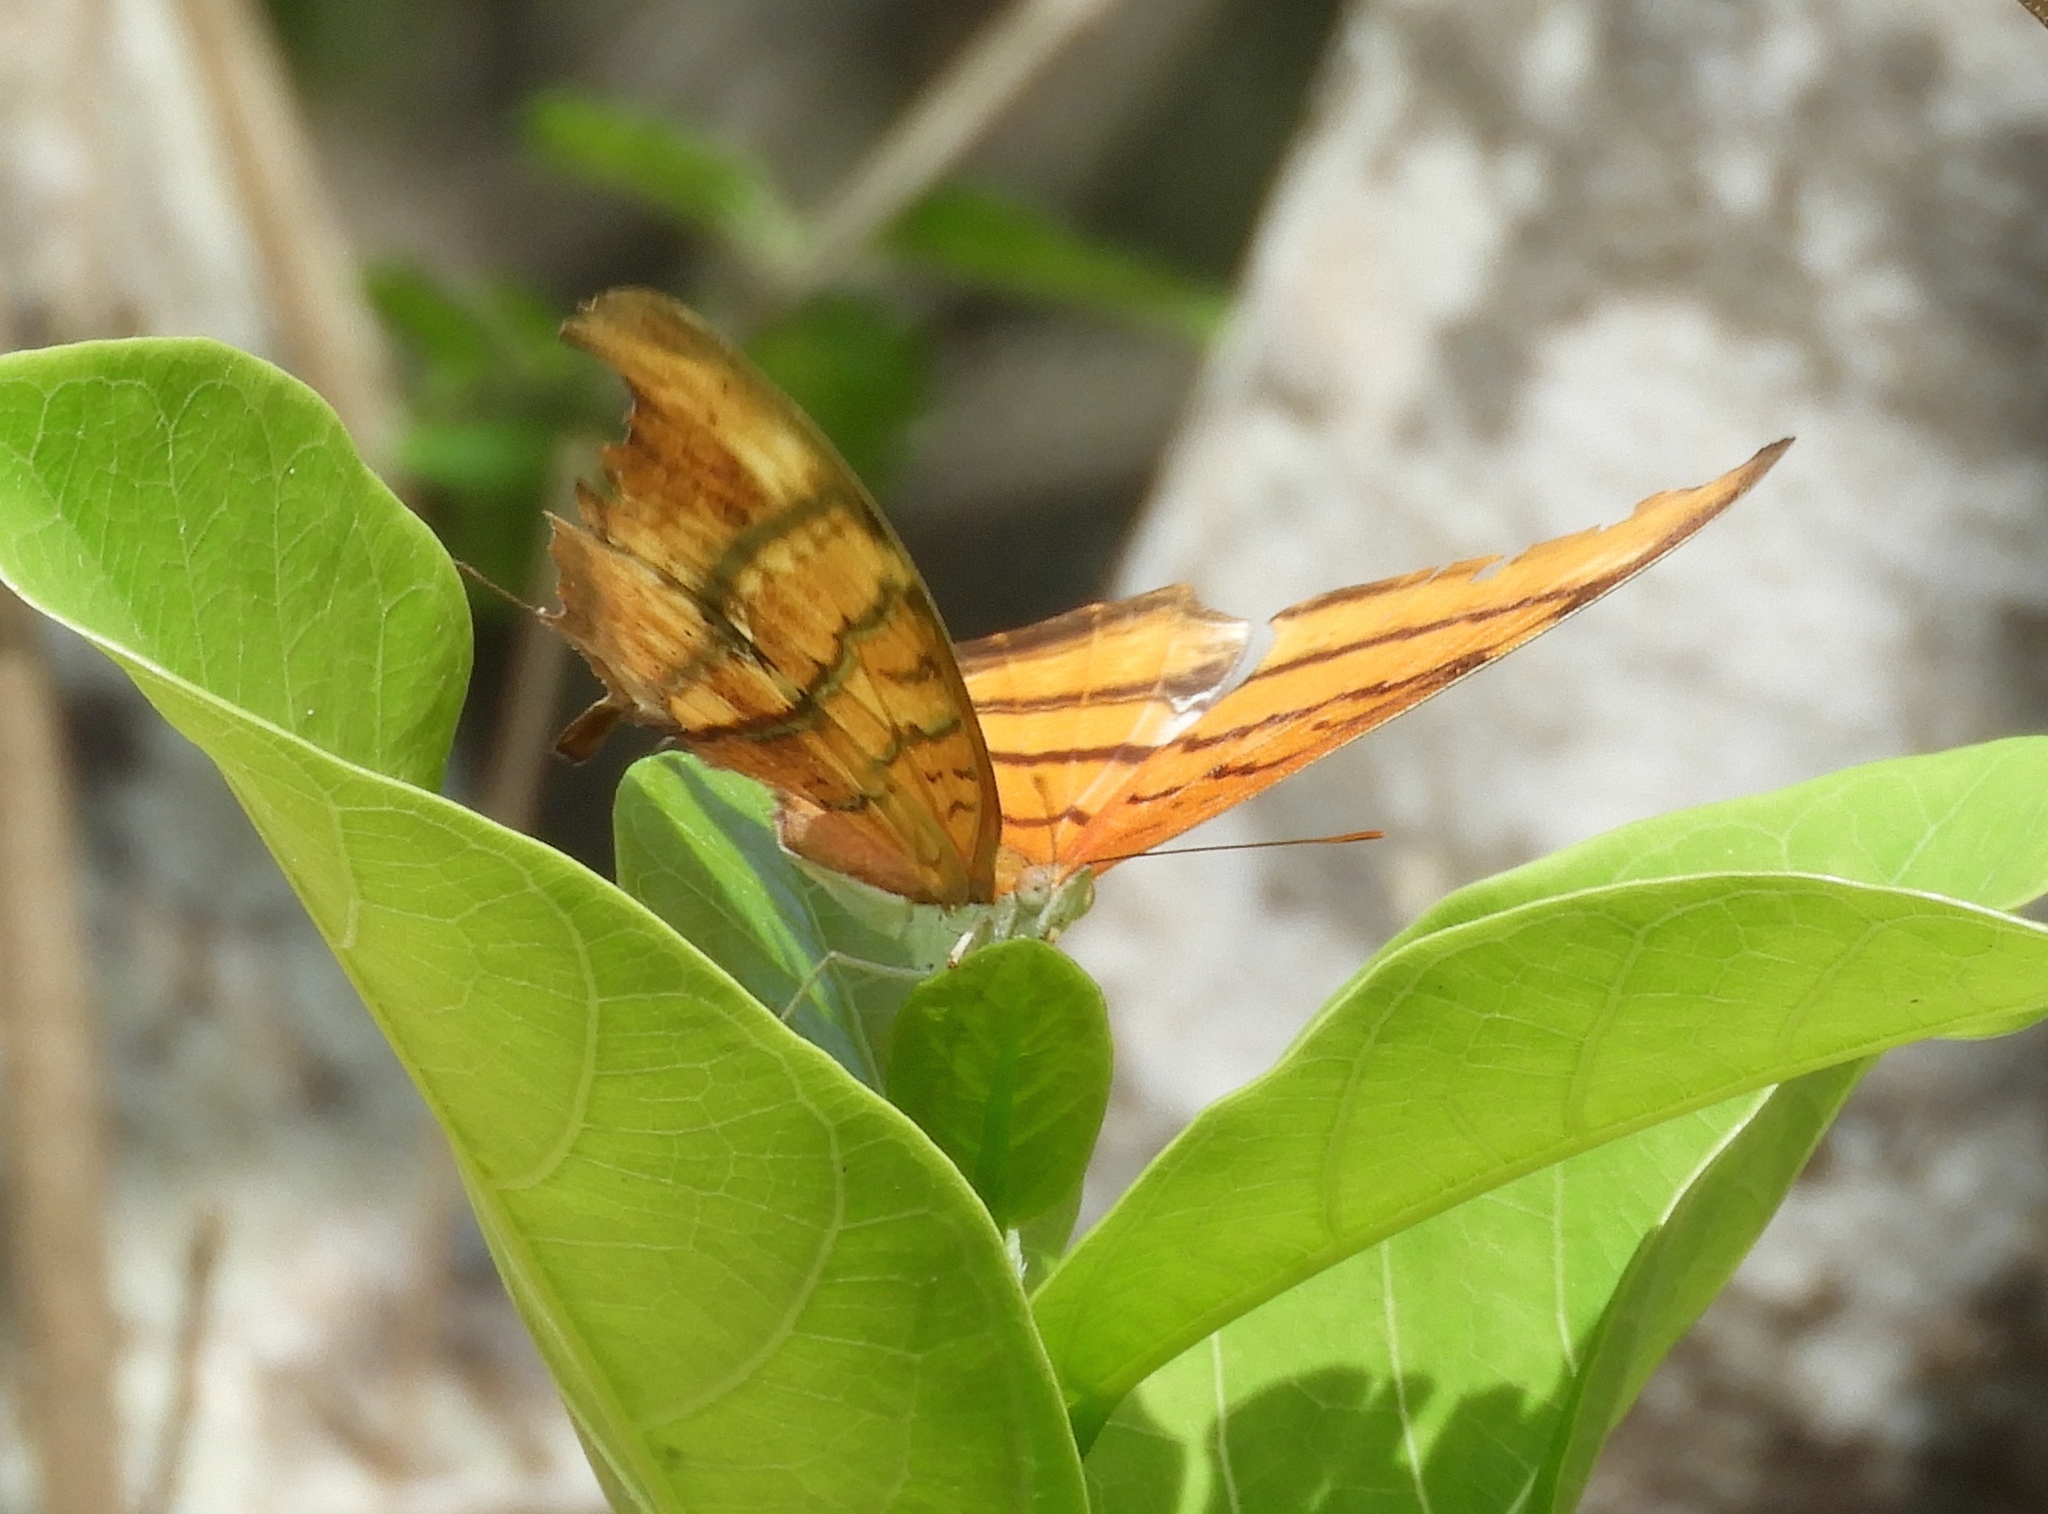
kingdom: Animalia
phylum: Arthropoda
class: Insecta
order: Lepidoptera
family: Nymphalidae
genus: Marpesia
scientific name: Marpesia petreus
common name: Red dagger wing
